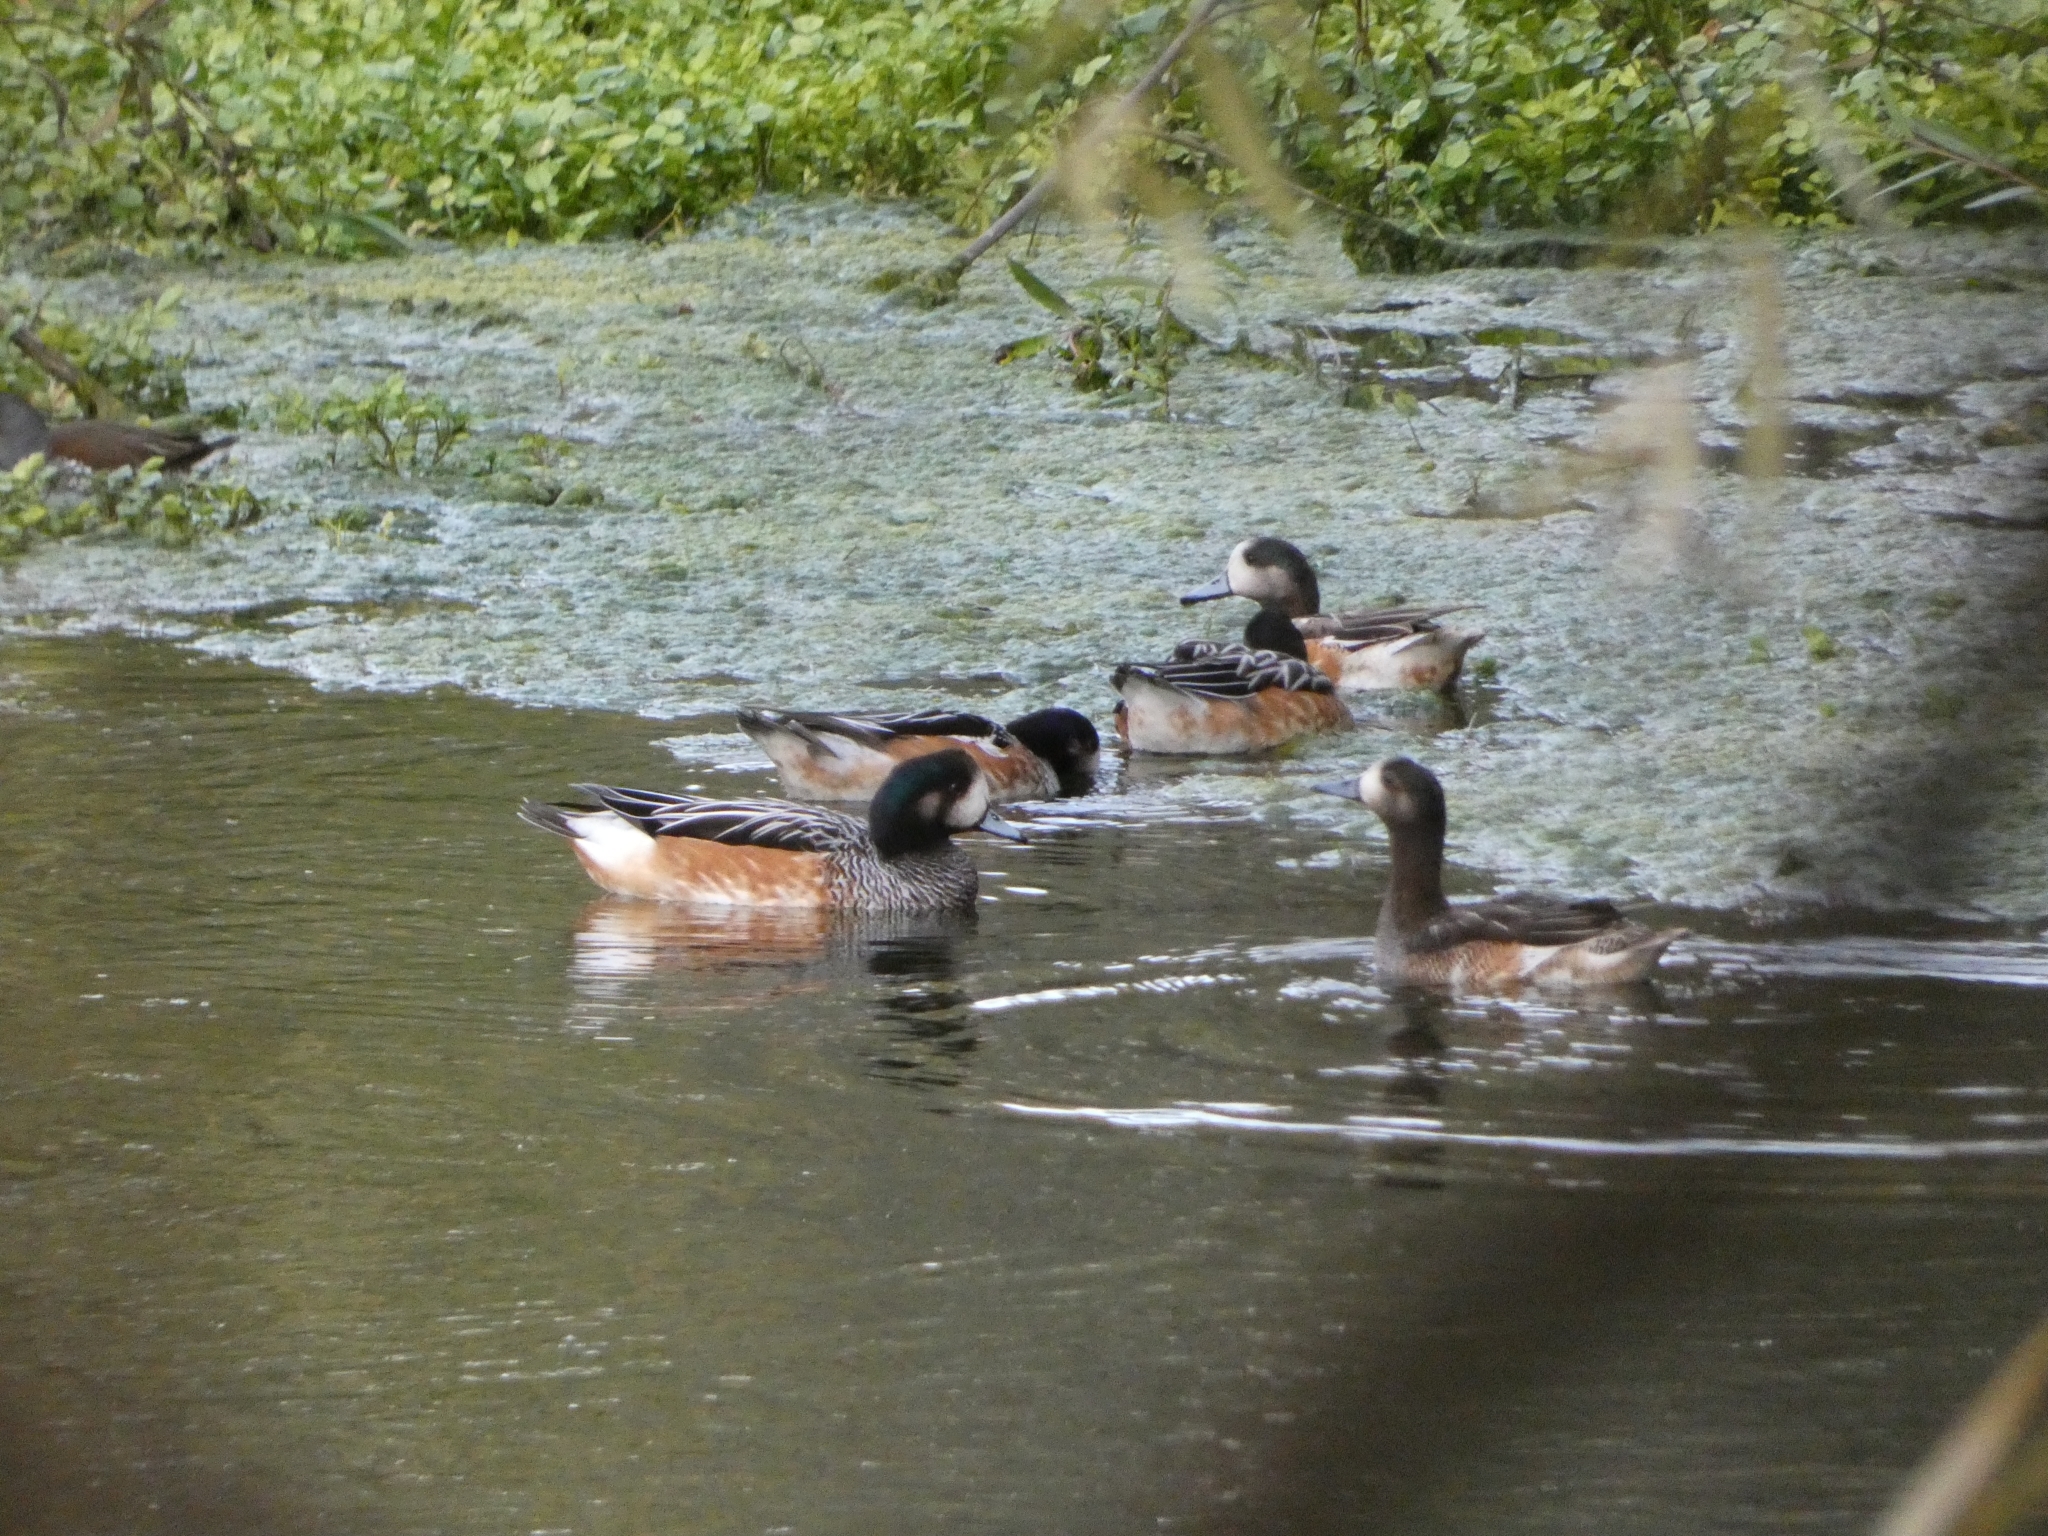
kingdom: Animalia
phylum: Chordata
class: Aves
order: Anseriformes
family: Anatidae
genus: Mareca
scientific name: Mareca sibilatrix
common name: Chiloe wigeon
